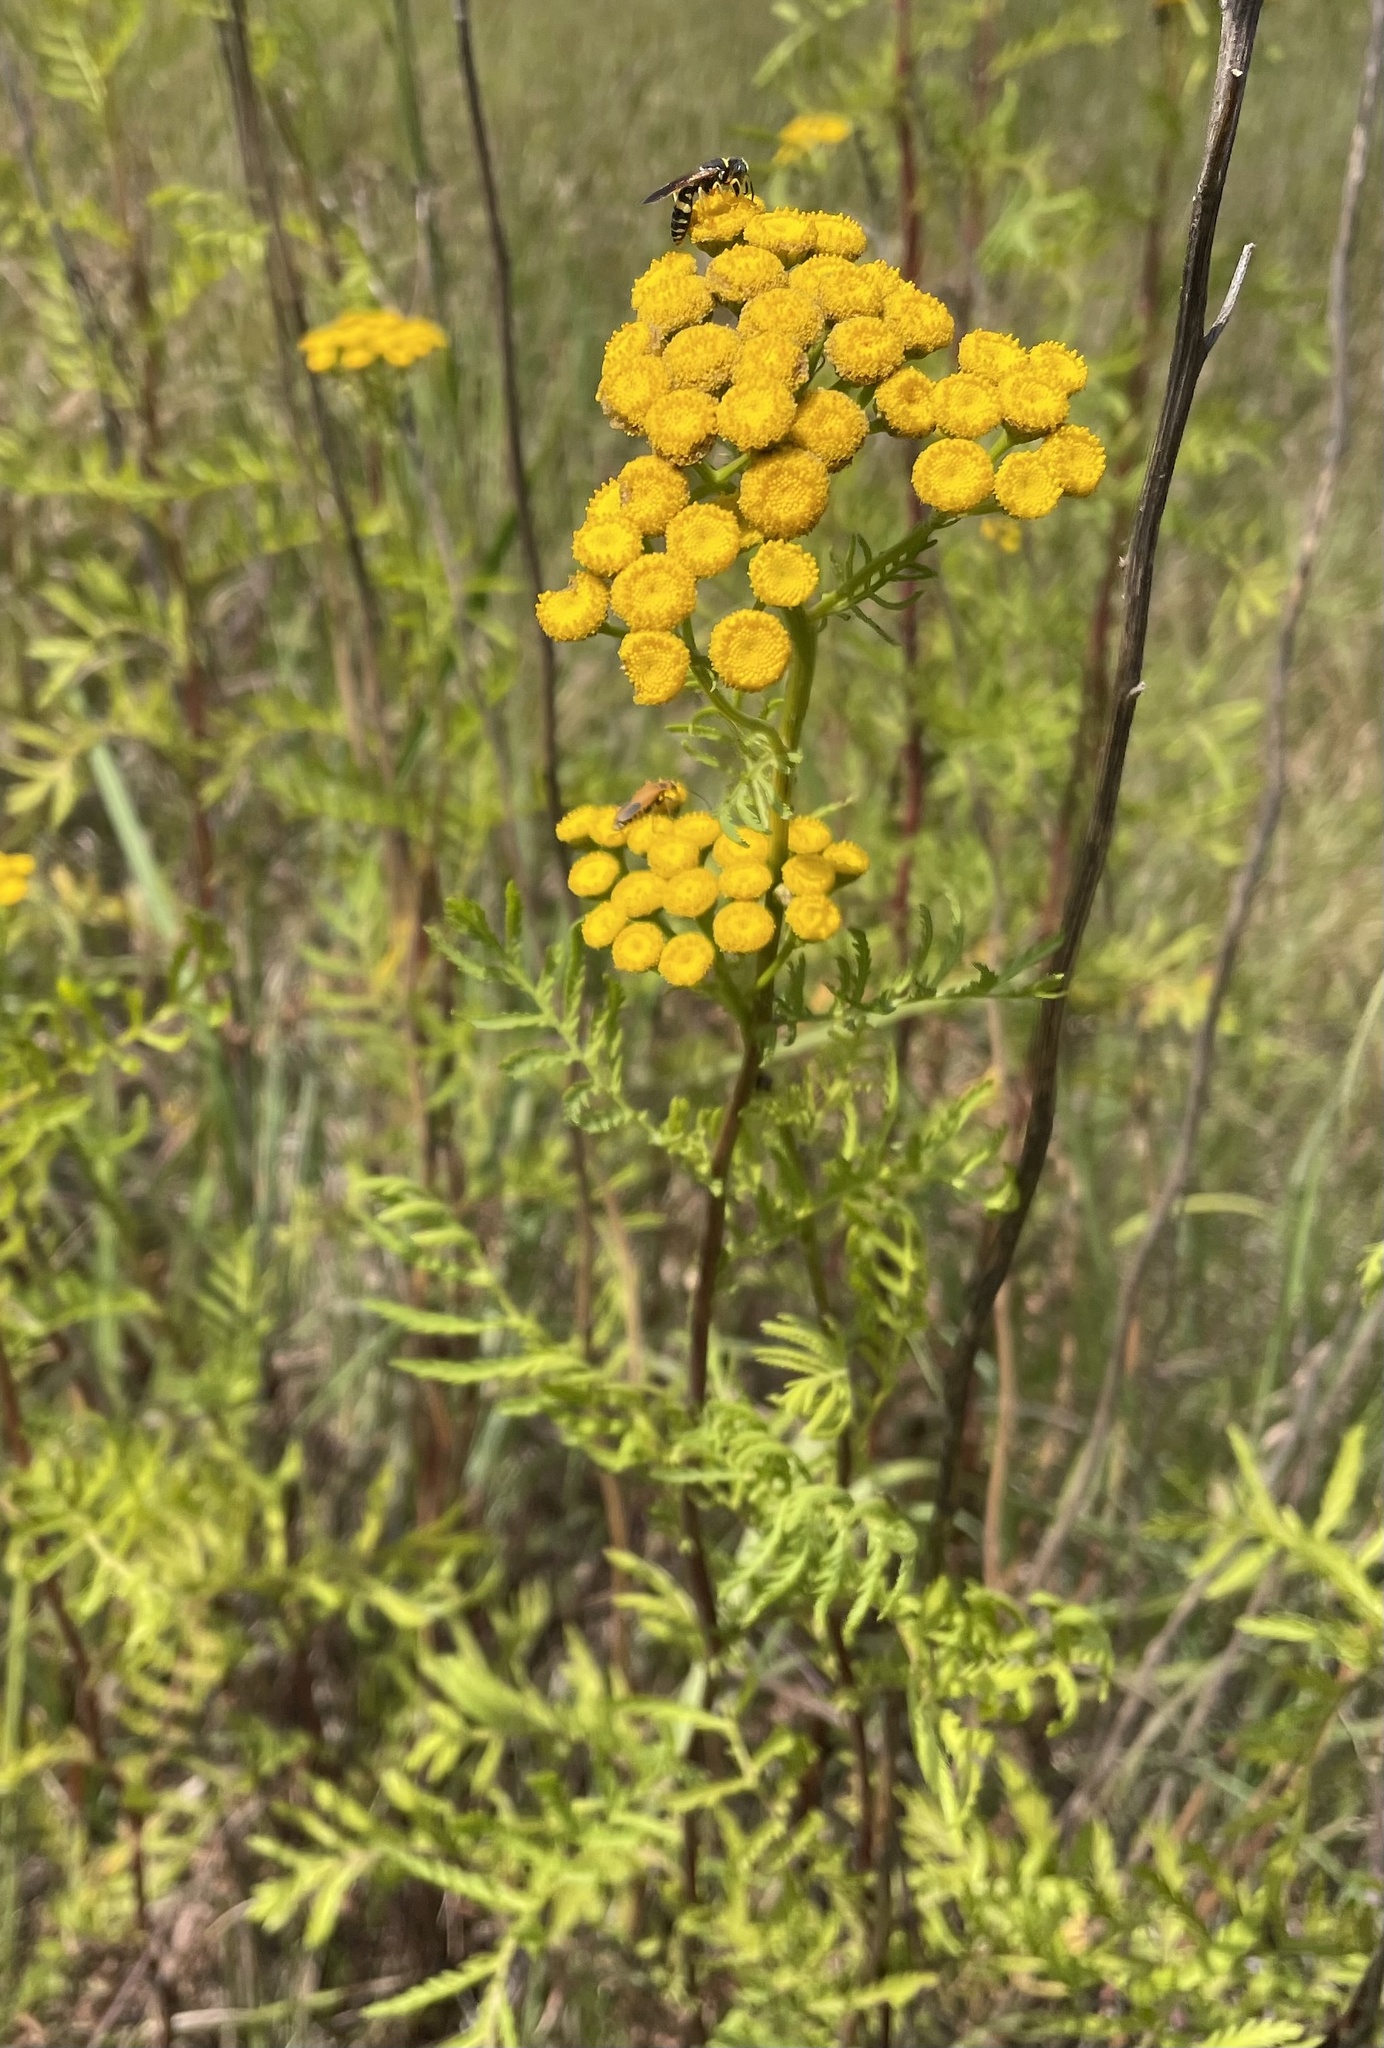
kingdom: Plantae
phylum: Tracheophyta
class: Magnoliopsida
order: Asterales
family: Asteraceae
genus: Tanacetum
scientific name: Tanacetum vulgare
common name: Common tansy
